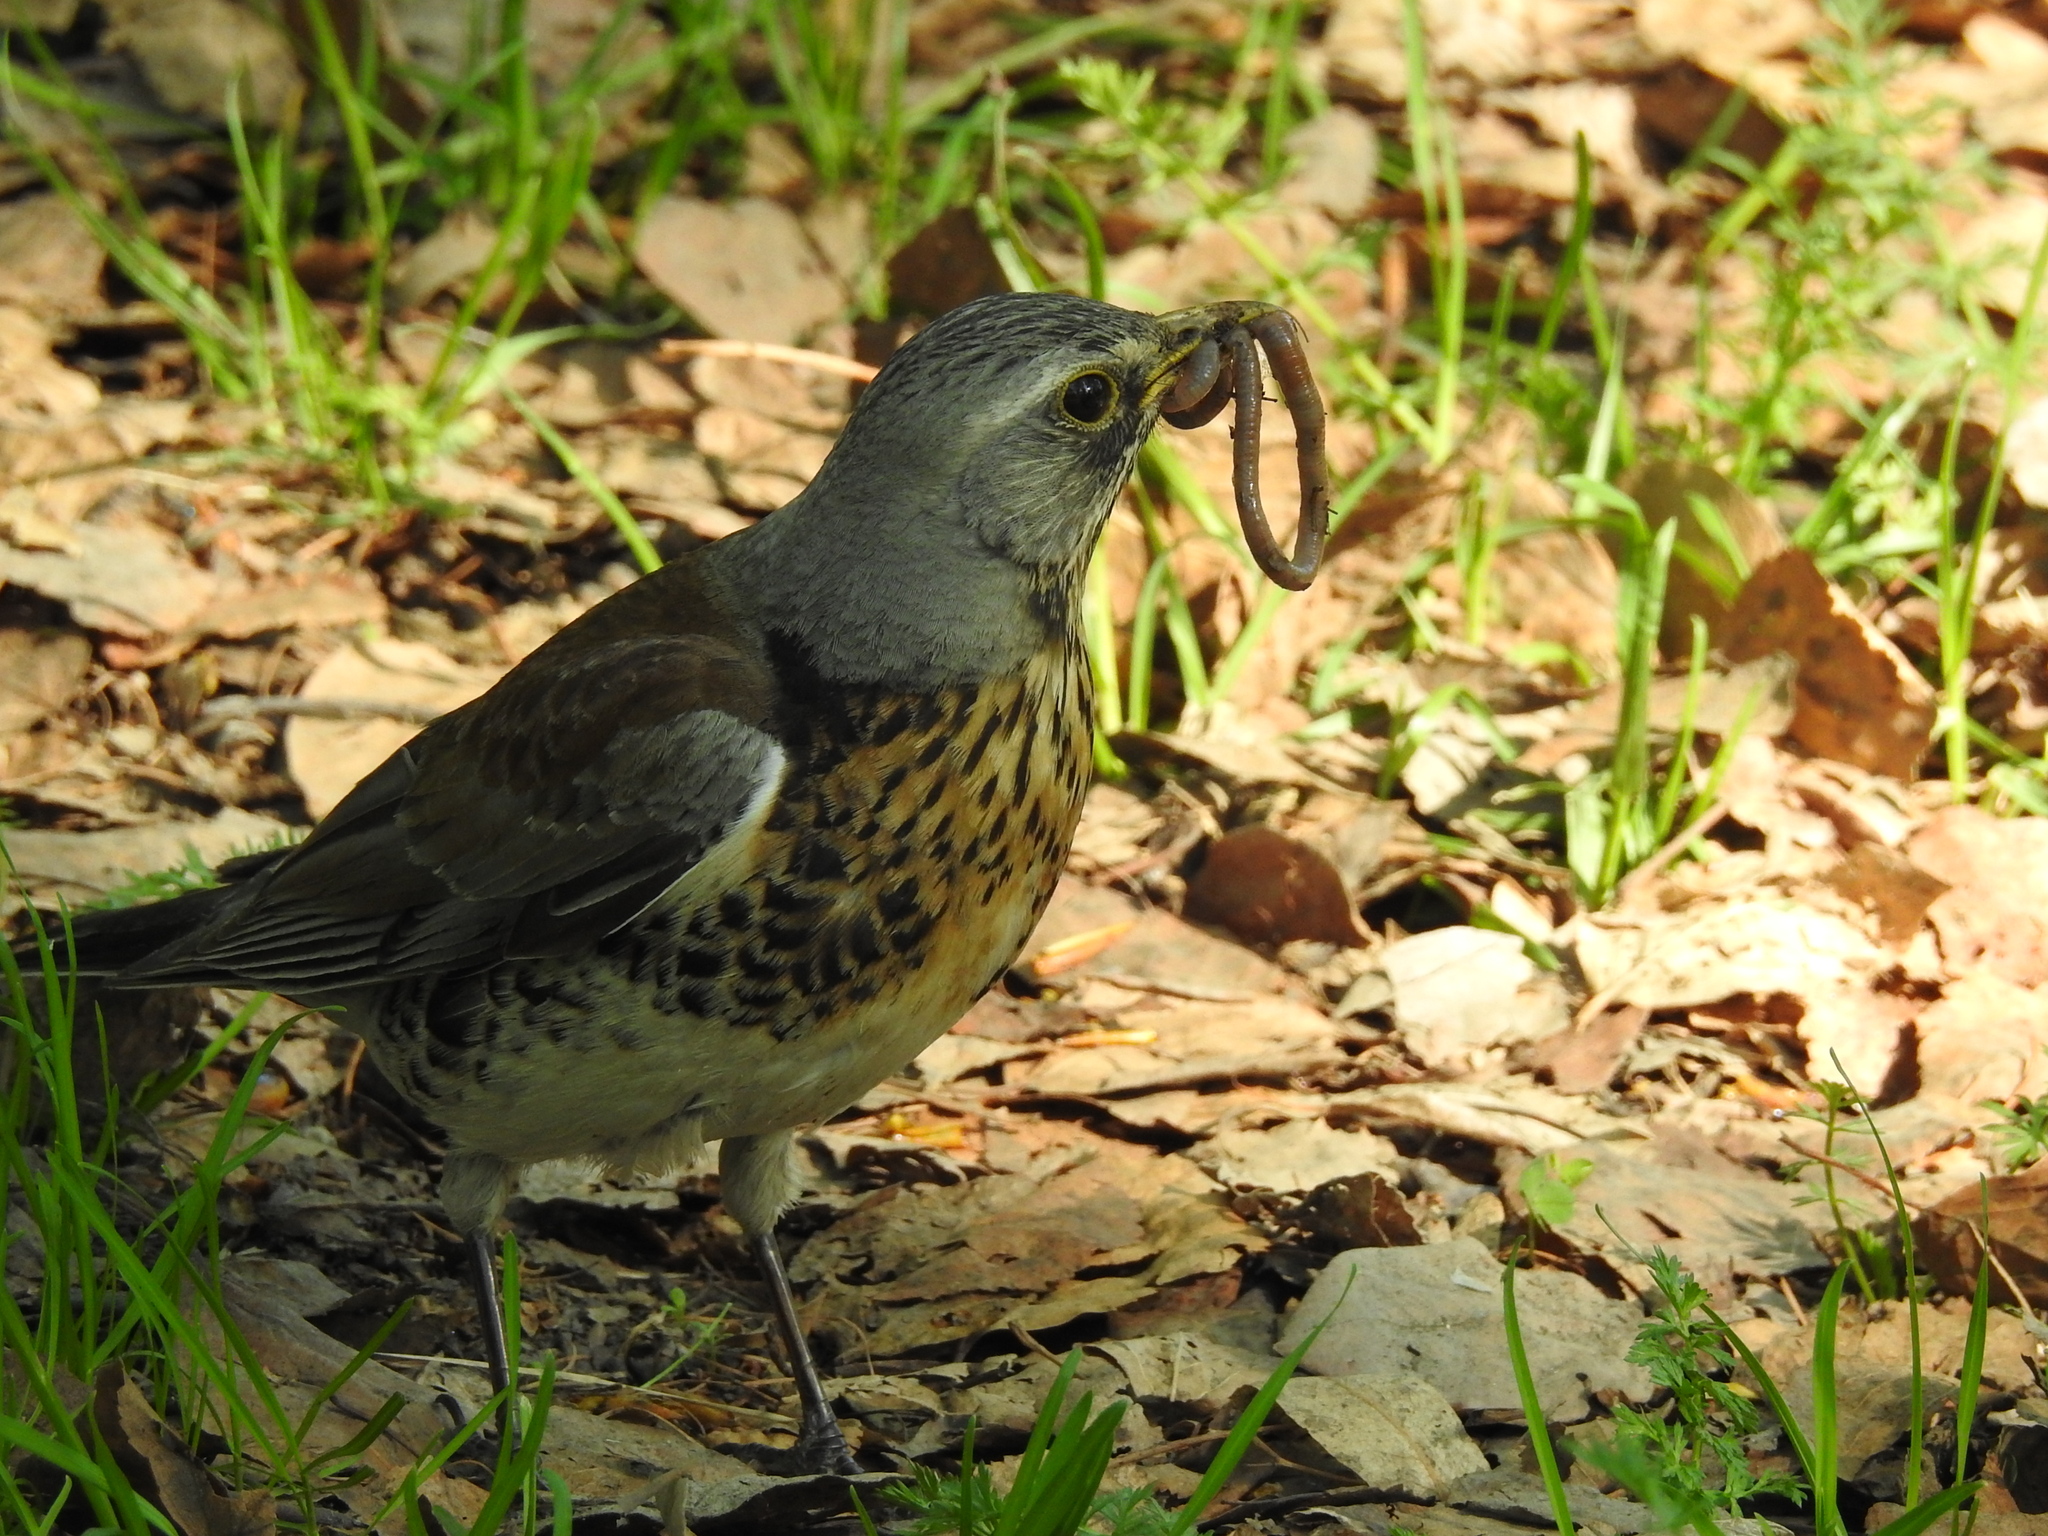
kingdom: Animalia
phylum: Chordata
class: Aves
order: Passeriformes
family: Turdidae
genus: Turdus
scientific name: Turdus pilaris
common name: Fieldfare
